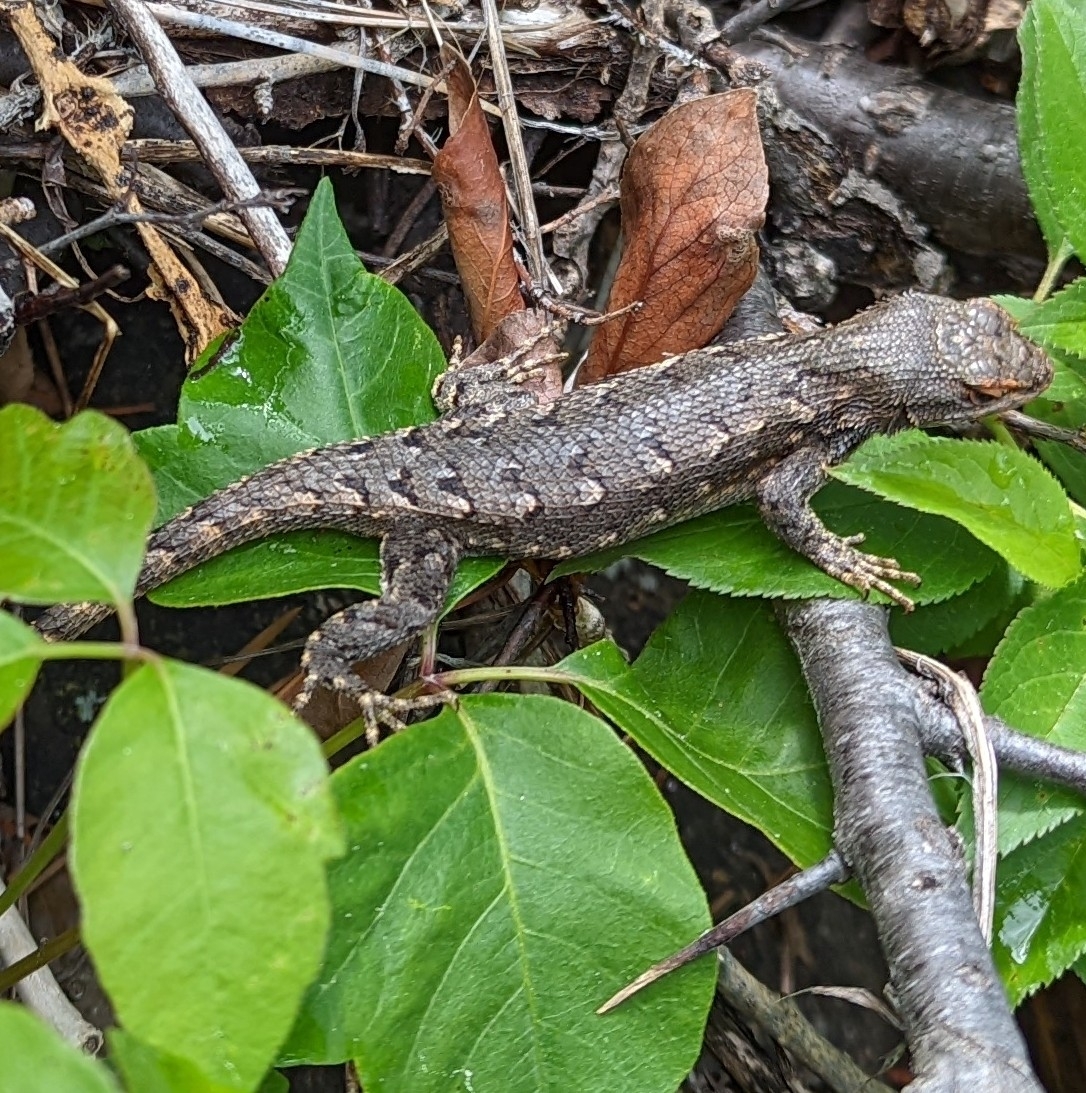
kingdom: Animalia
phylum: Chordata
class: Squamata
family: Phrynosomatidae
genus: Sceloporus
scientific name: Sceloporus consobrinus
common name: Southern prairie lizard
